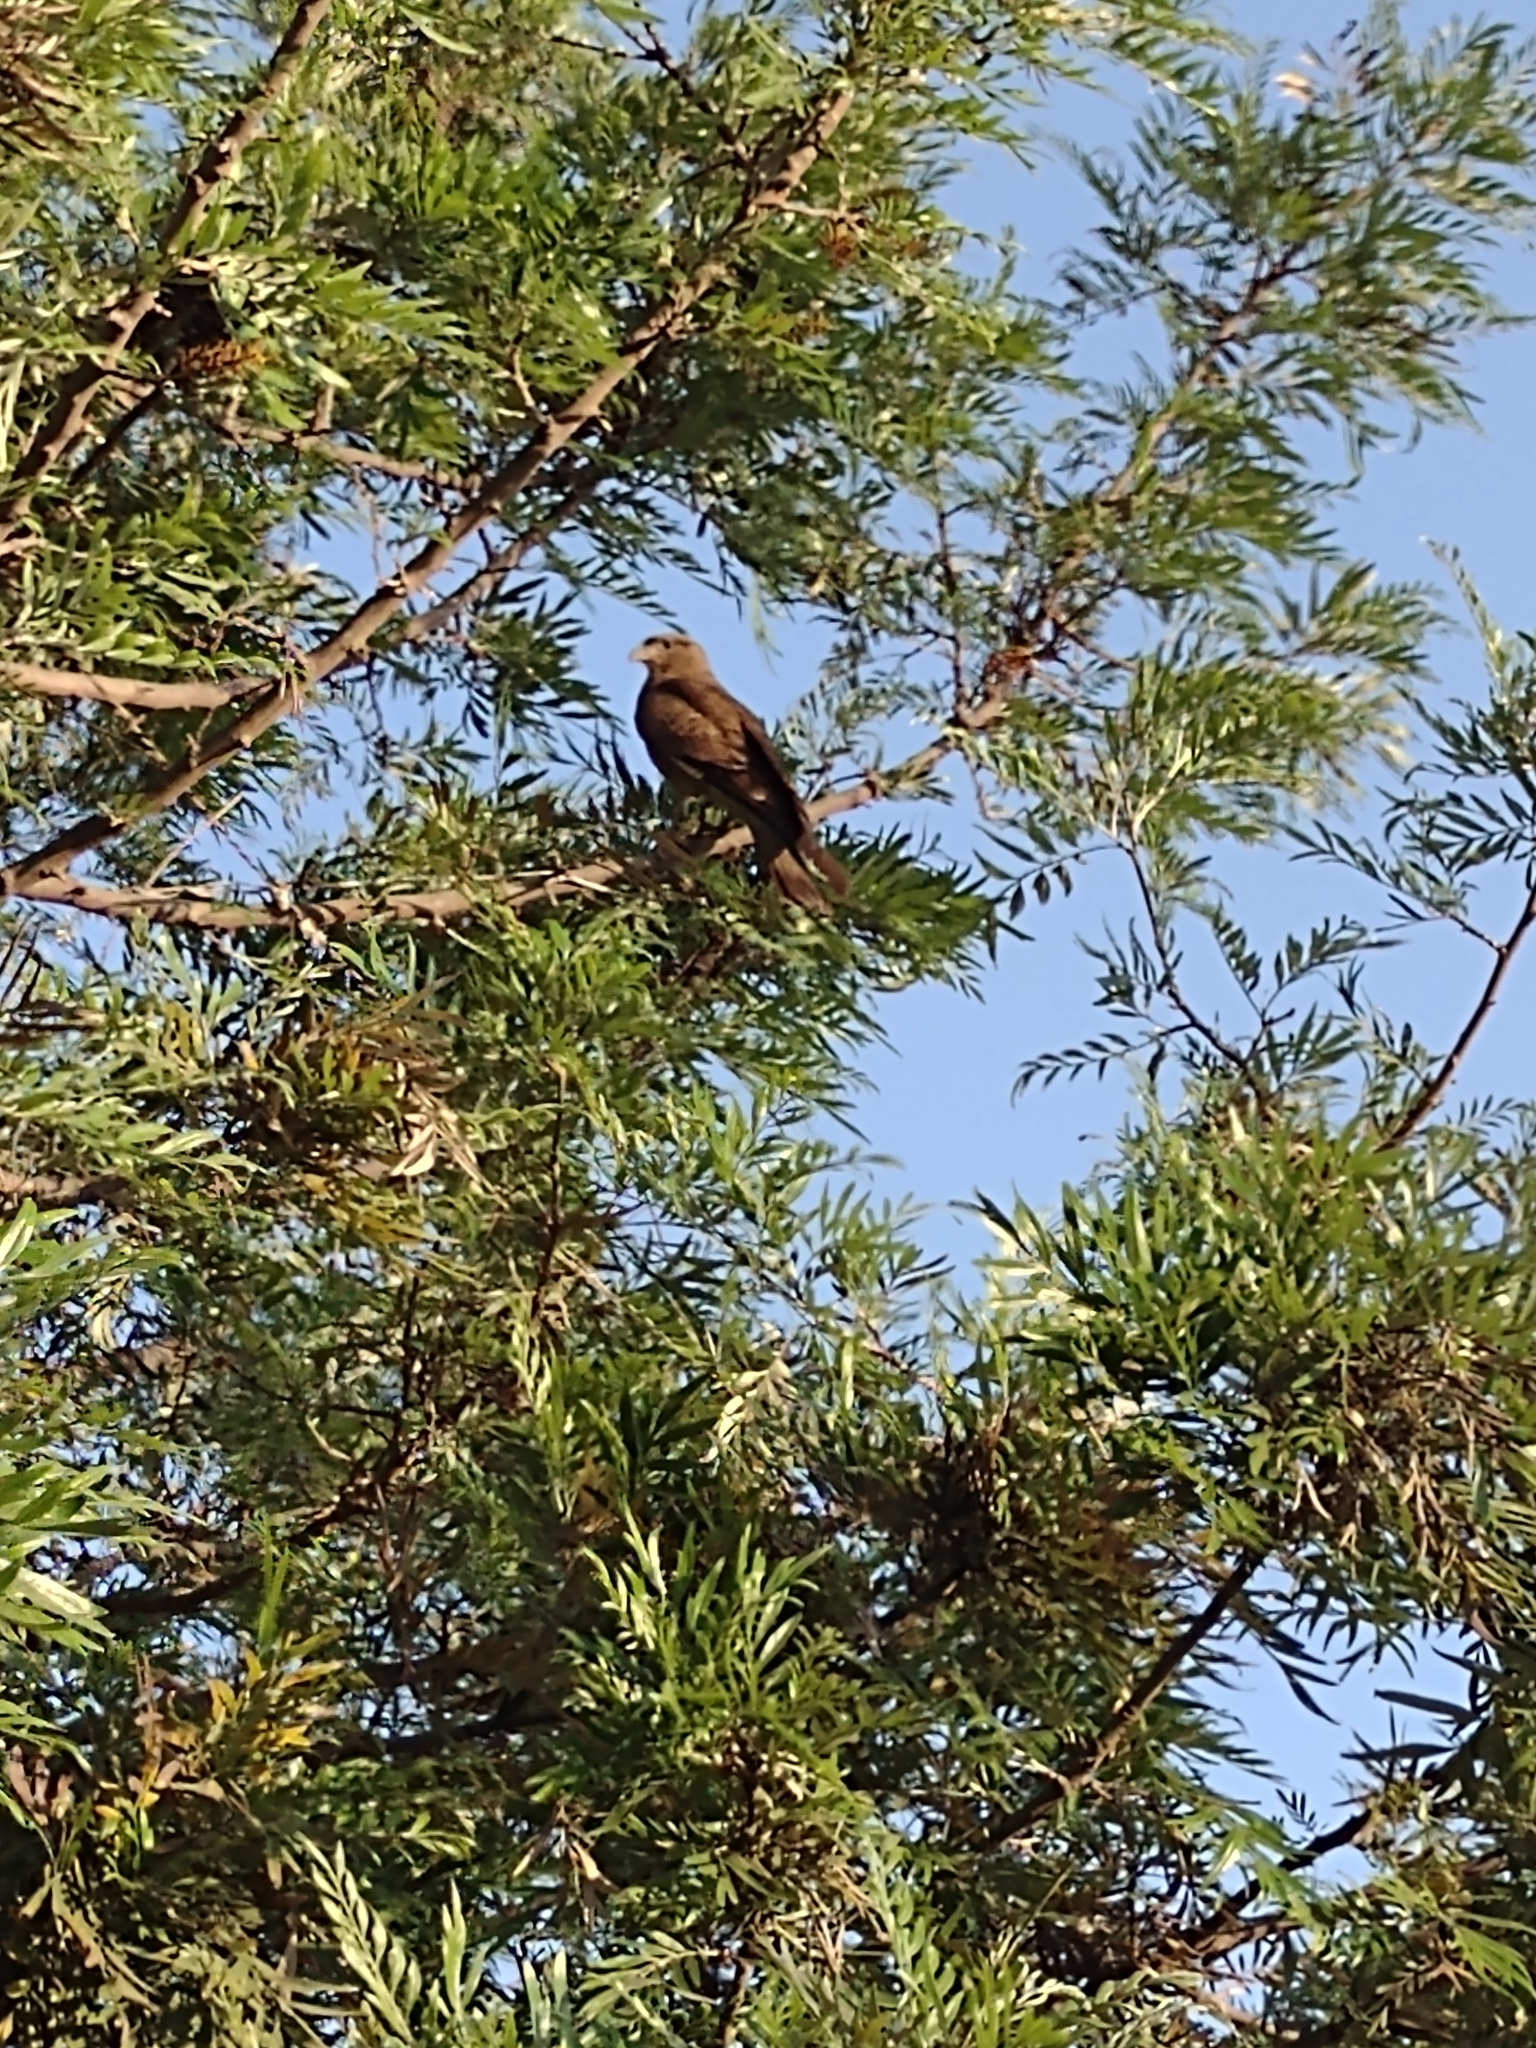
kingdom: Animalia
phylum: Chordata
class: Aves
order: Falconiformes
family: Falconidae
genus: Daptrius
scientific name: Daptrius
